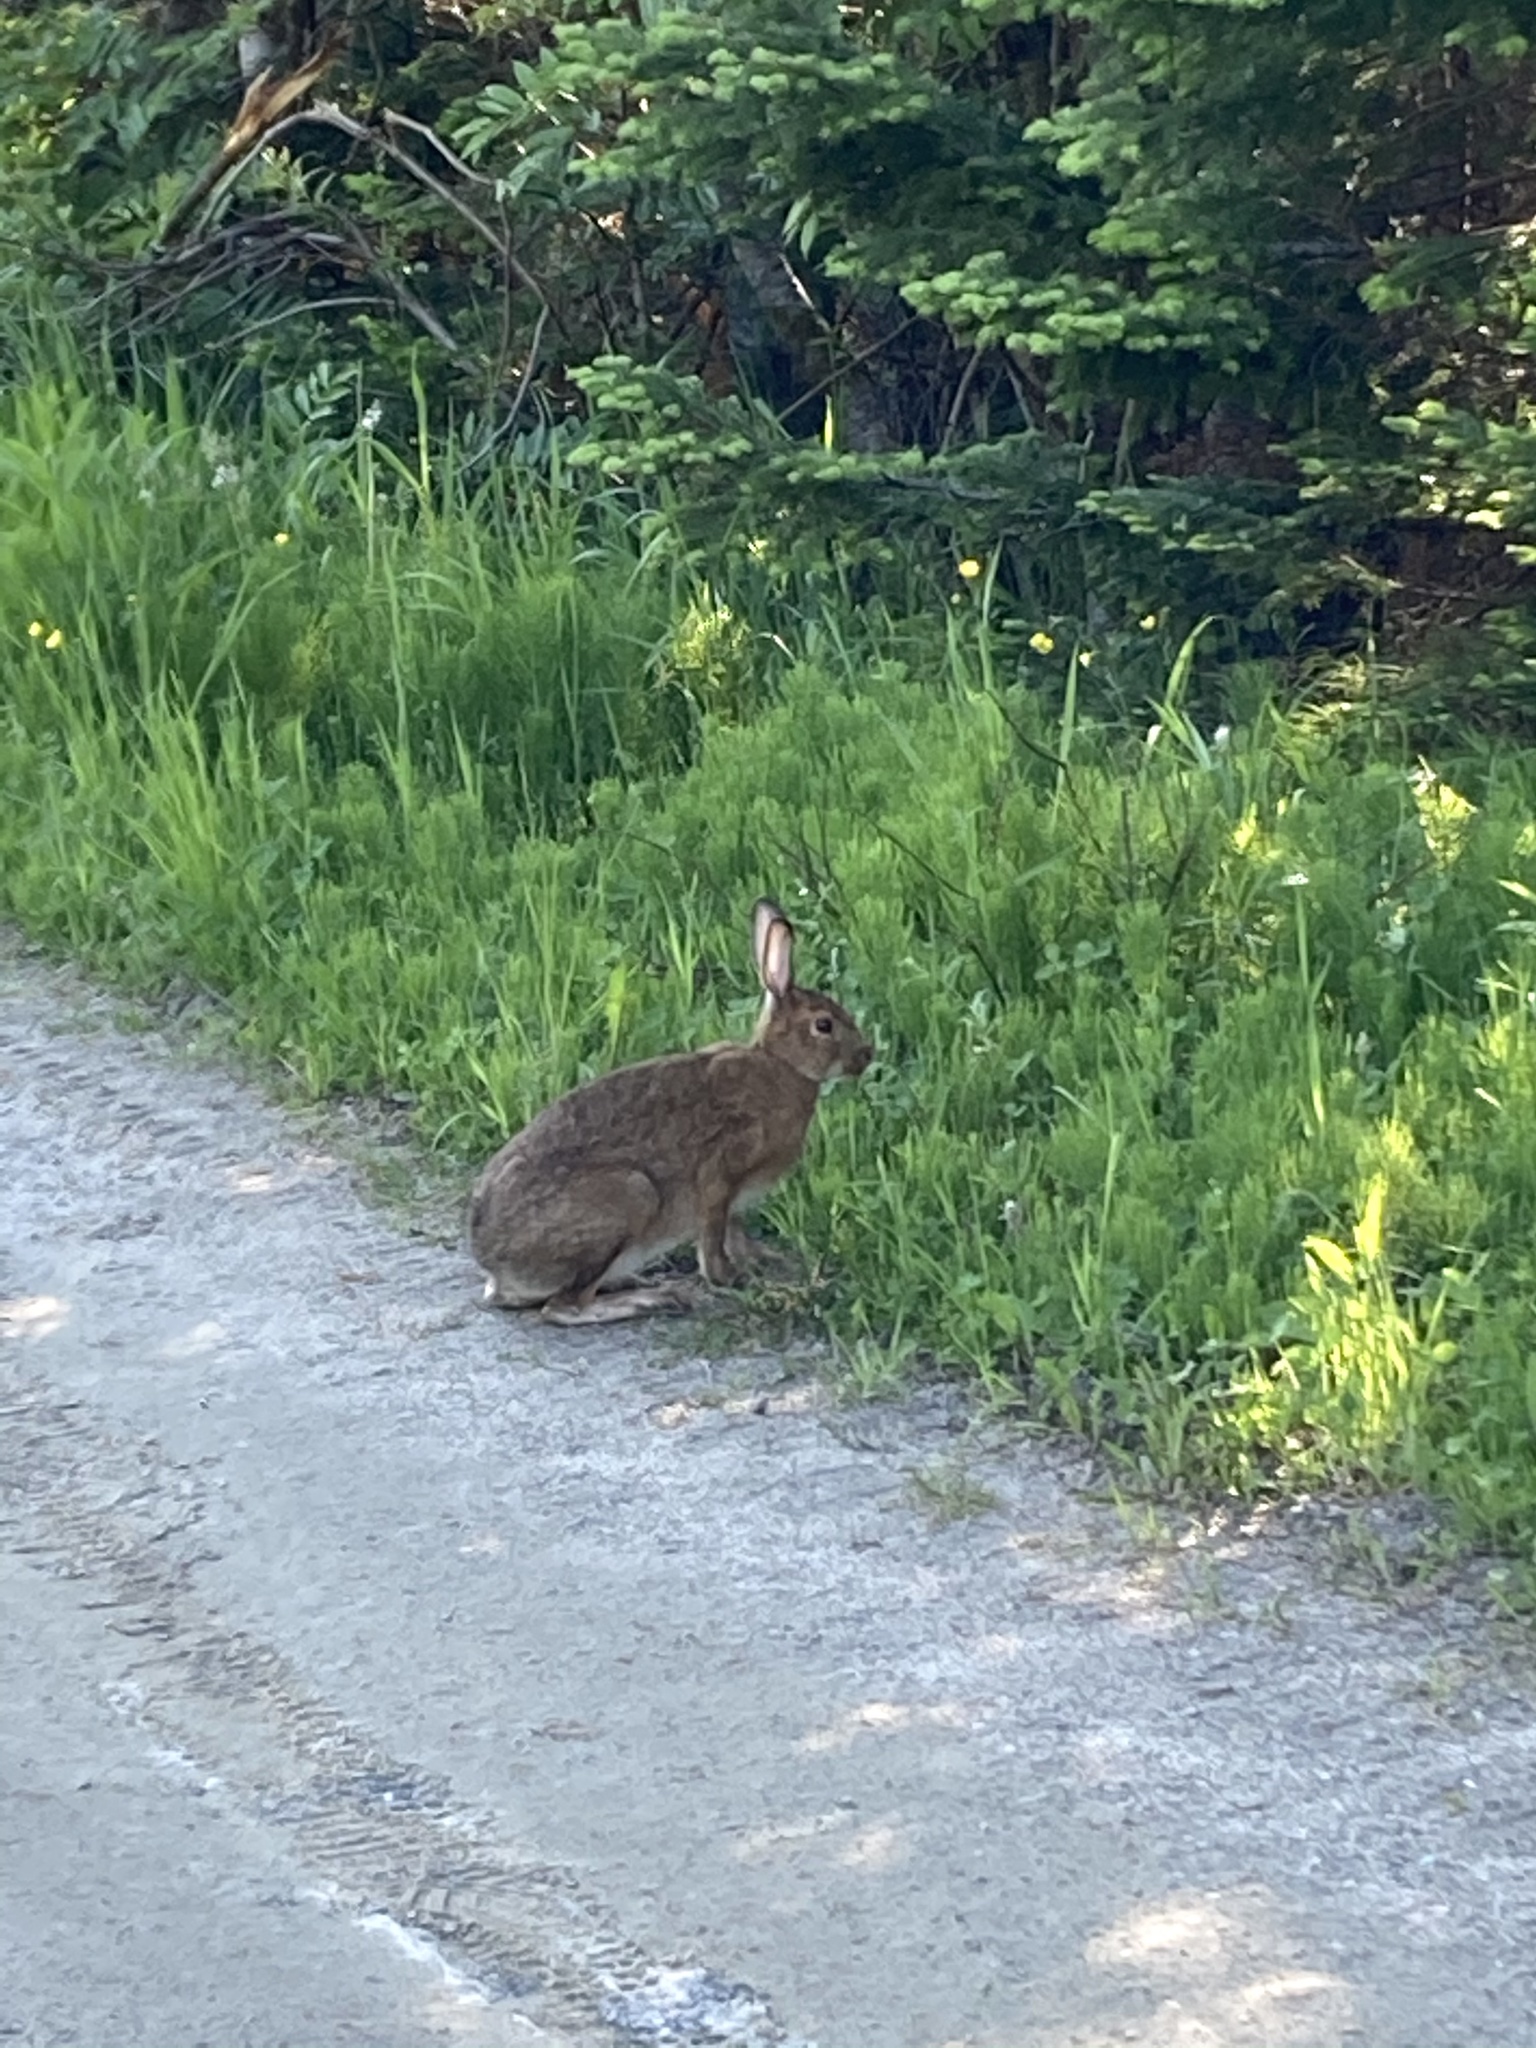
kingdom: Animalia
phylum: Chordata
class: Mammalia
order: Lagomorpha
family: Leporidae
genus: Lepus
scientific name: Lepus americanus
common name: Snowshoe hare
